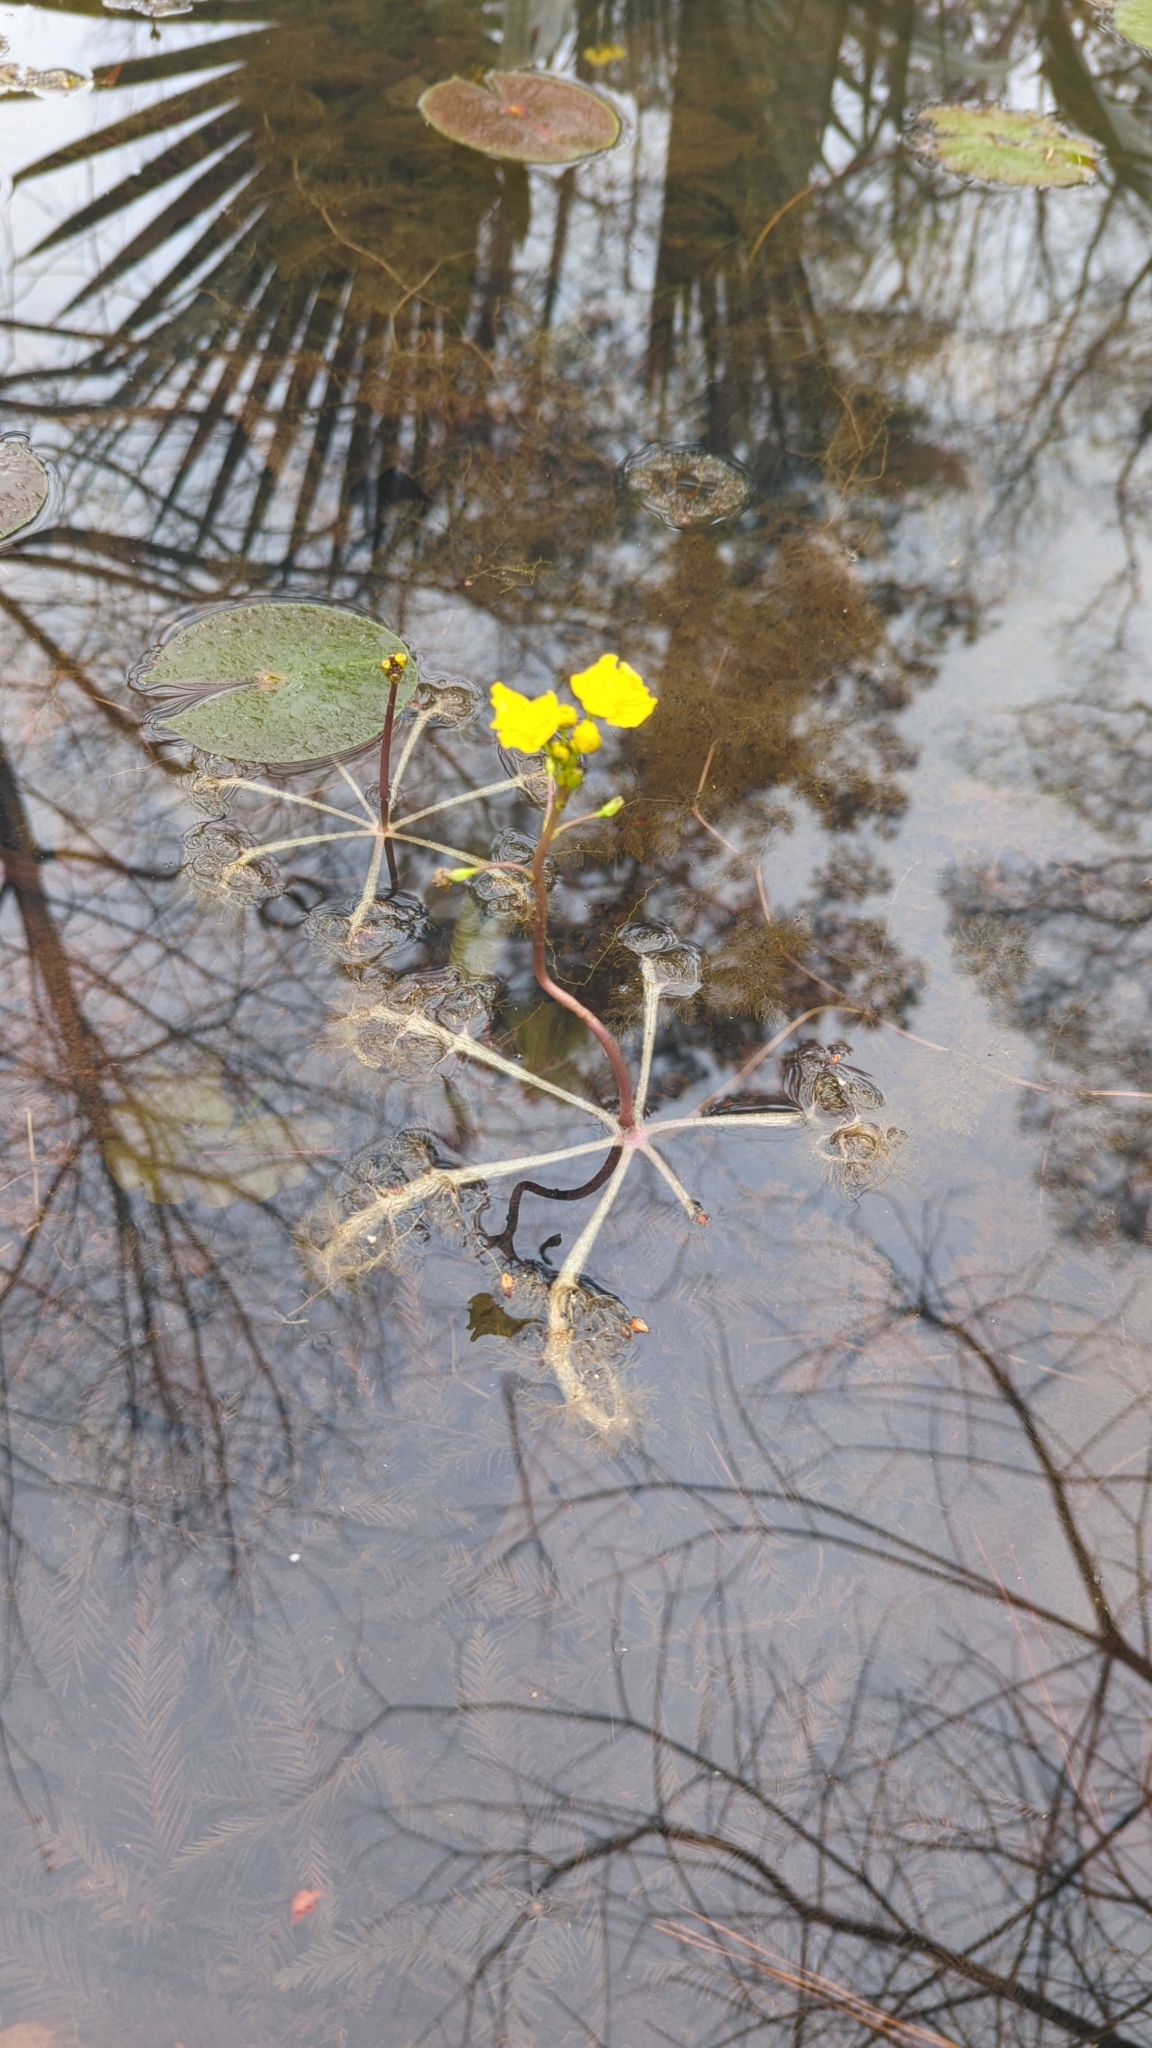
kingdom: Plantae
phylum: Tracheophyta
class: Magnoliopsida
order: Lamiales
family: Lentibulariaceae
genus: Utricularia
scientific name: Utricularia inflata
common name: Floating bladderwort
